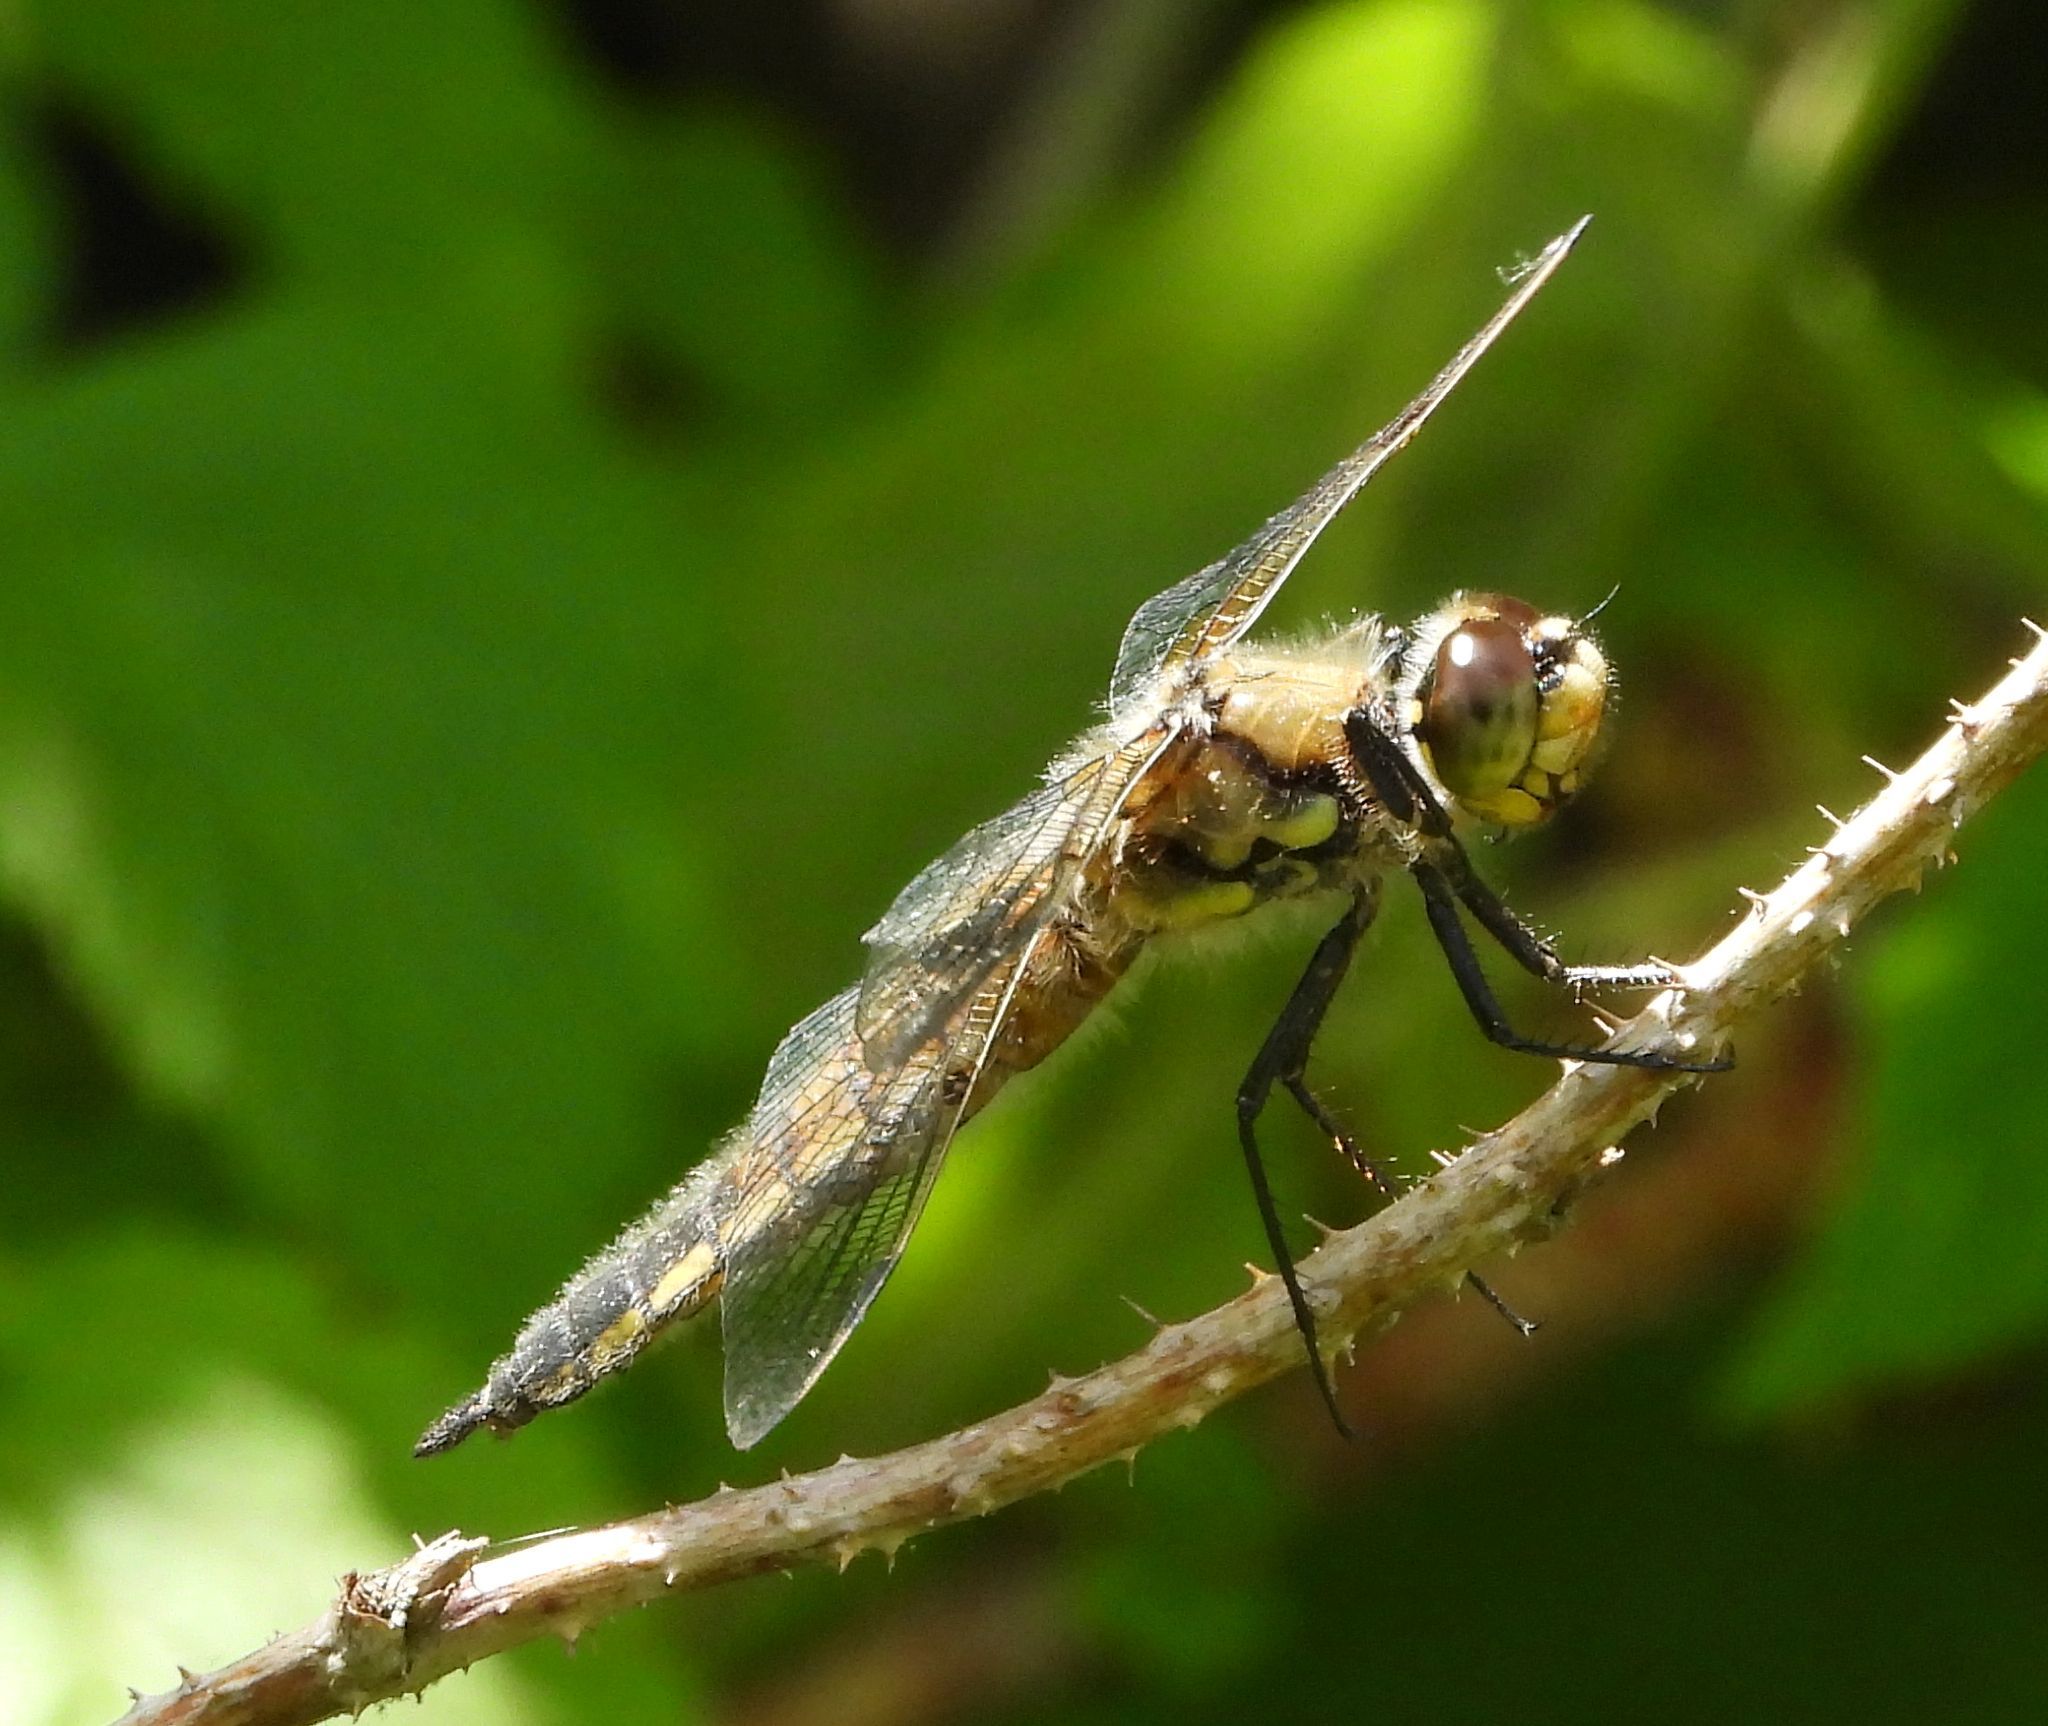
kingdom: Animalia
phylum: Arthropoda
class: Insecta
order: Odonata
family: Libellulidae
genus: Libellula
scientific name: Libellula quadrimaculata
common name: Four-spotted chaser
